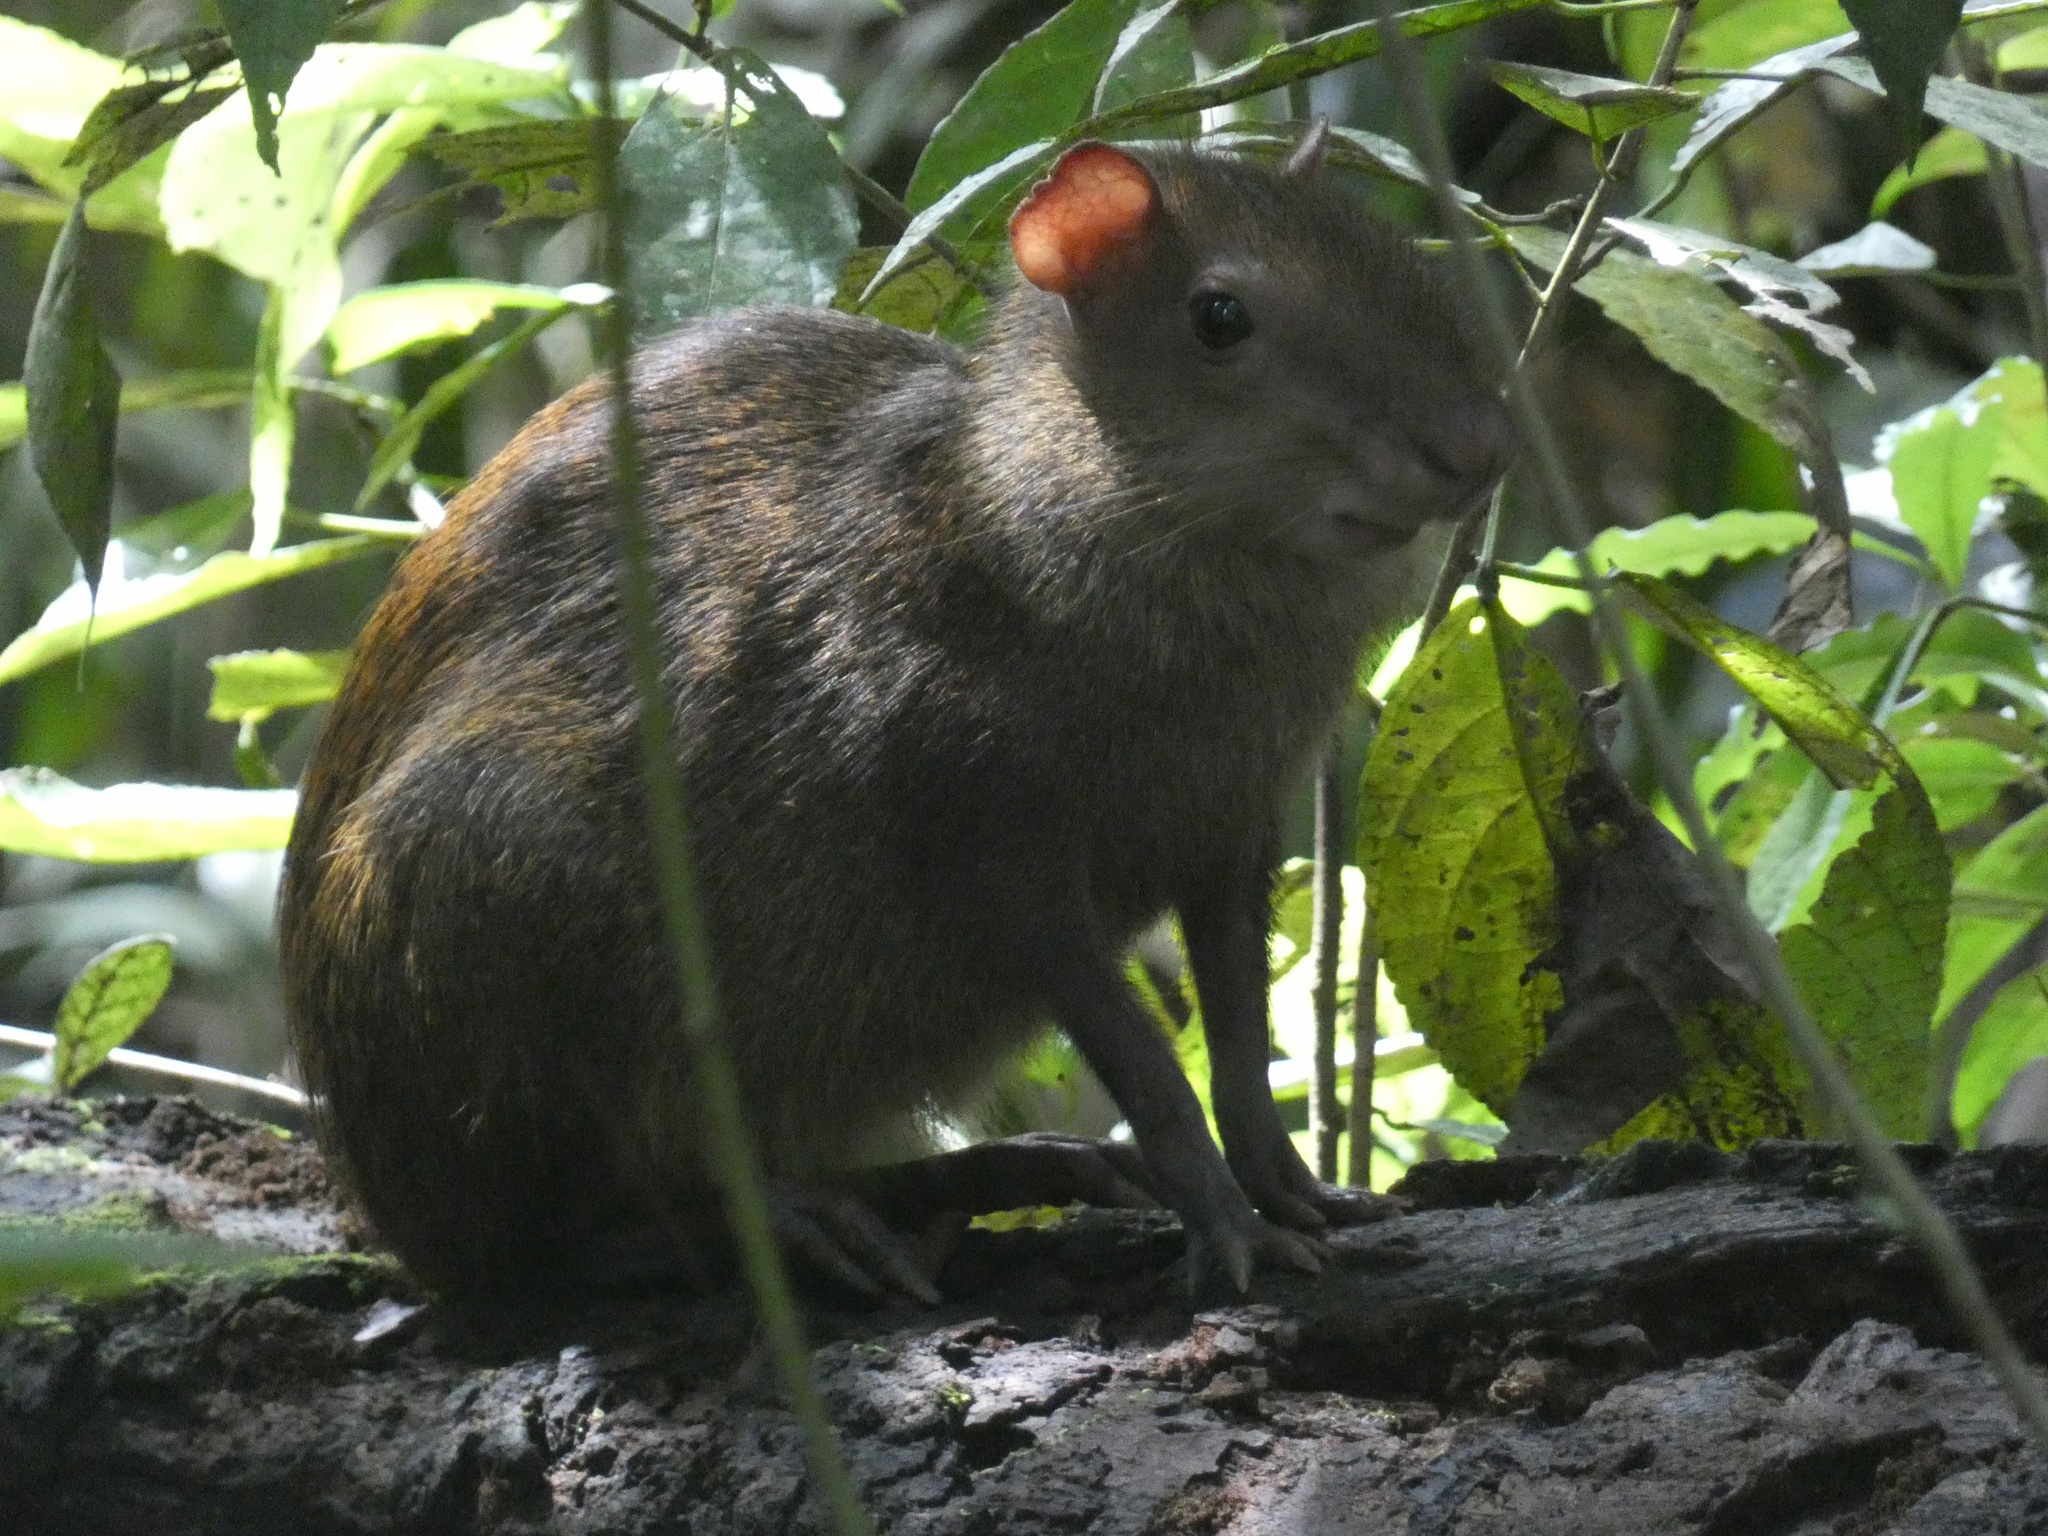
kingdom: Animalia
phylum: Chordata
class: Mammalia
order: Rodentia
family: Dasyproctidae
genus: Dasyprocta
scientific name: Dasyprocta punctata
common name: Central american agouti
